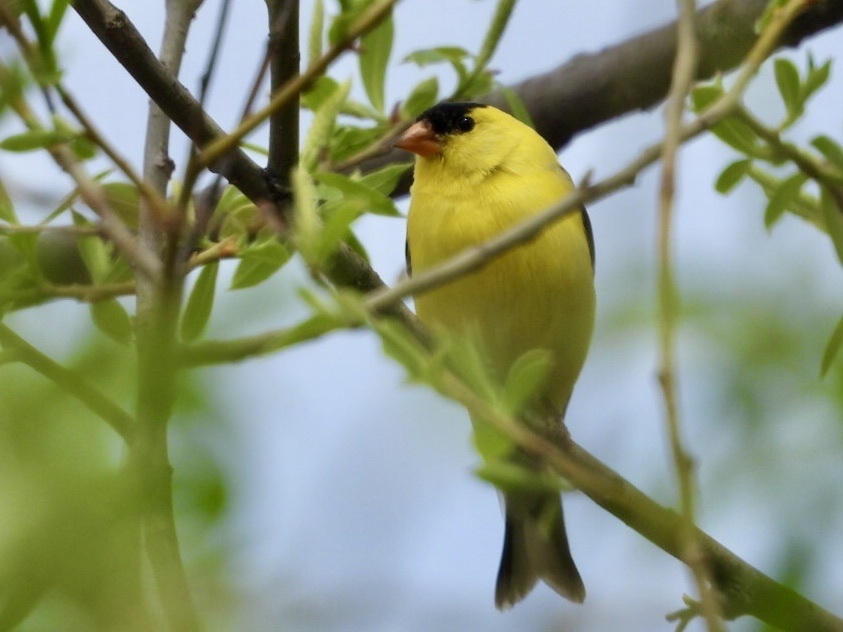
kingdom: Animalia
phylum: Chordata
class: Aves
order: Passeriformes
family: Fringillidae
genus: Spinus
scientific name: Spinus tristis
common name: American goldfinch
